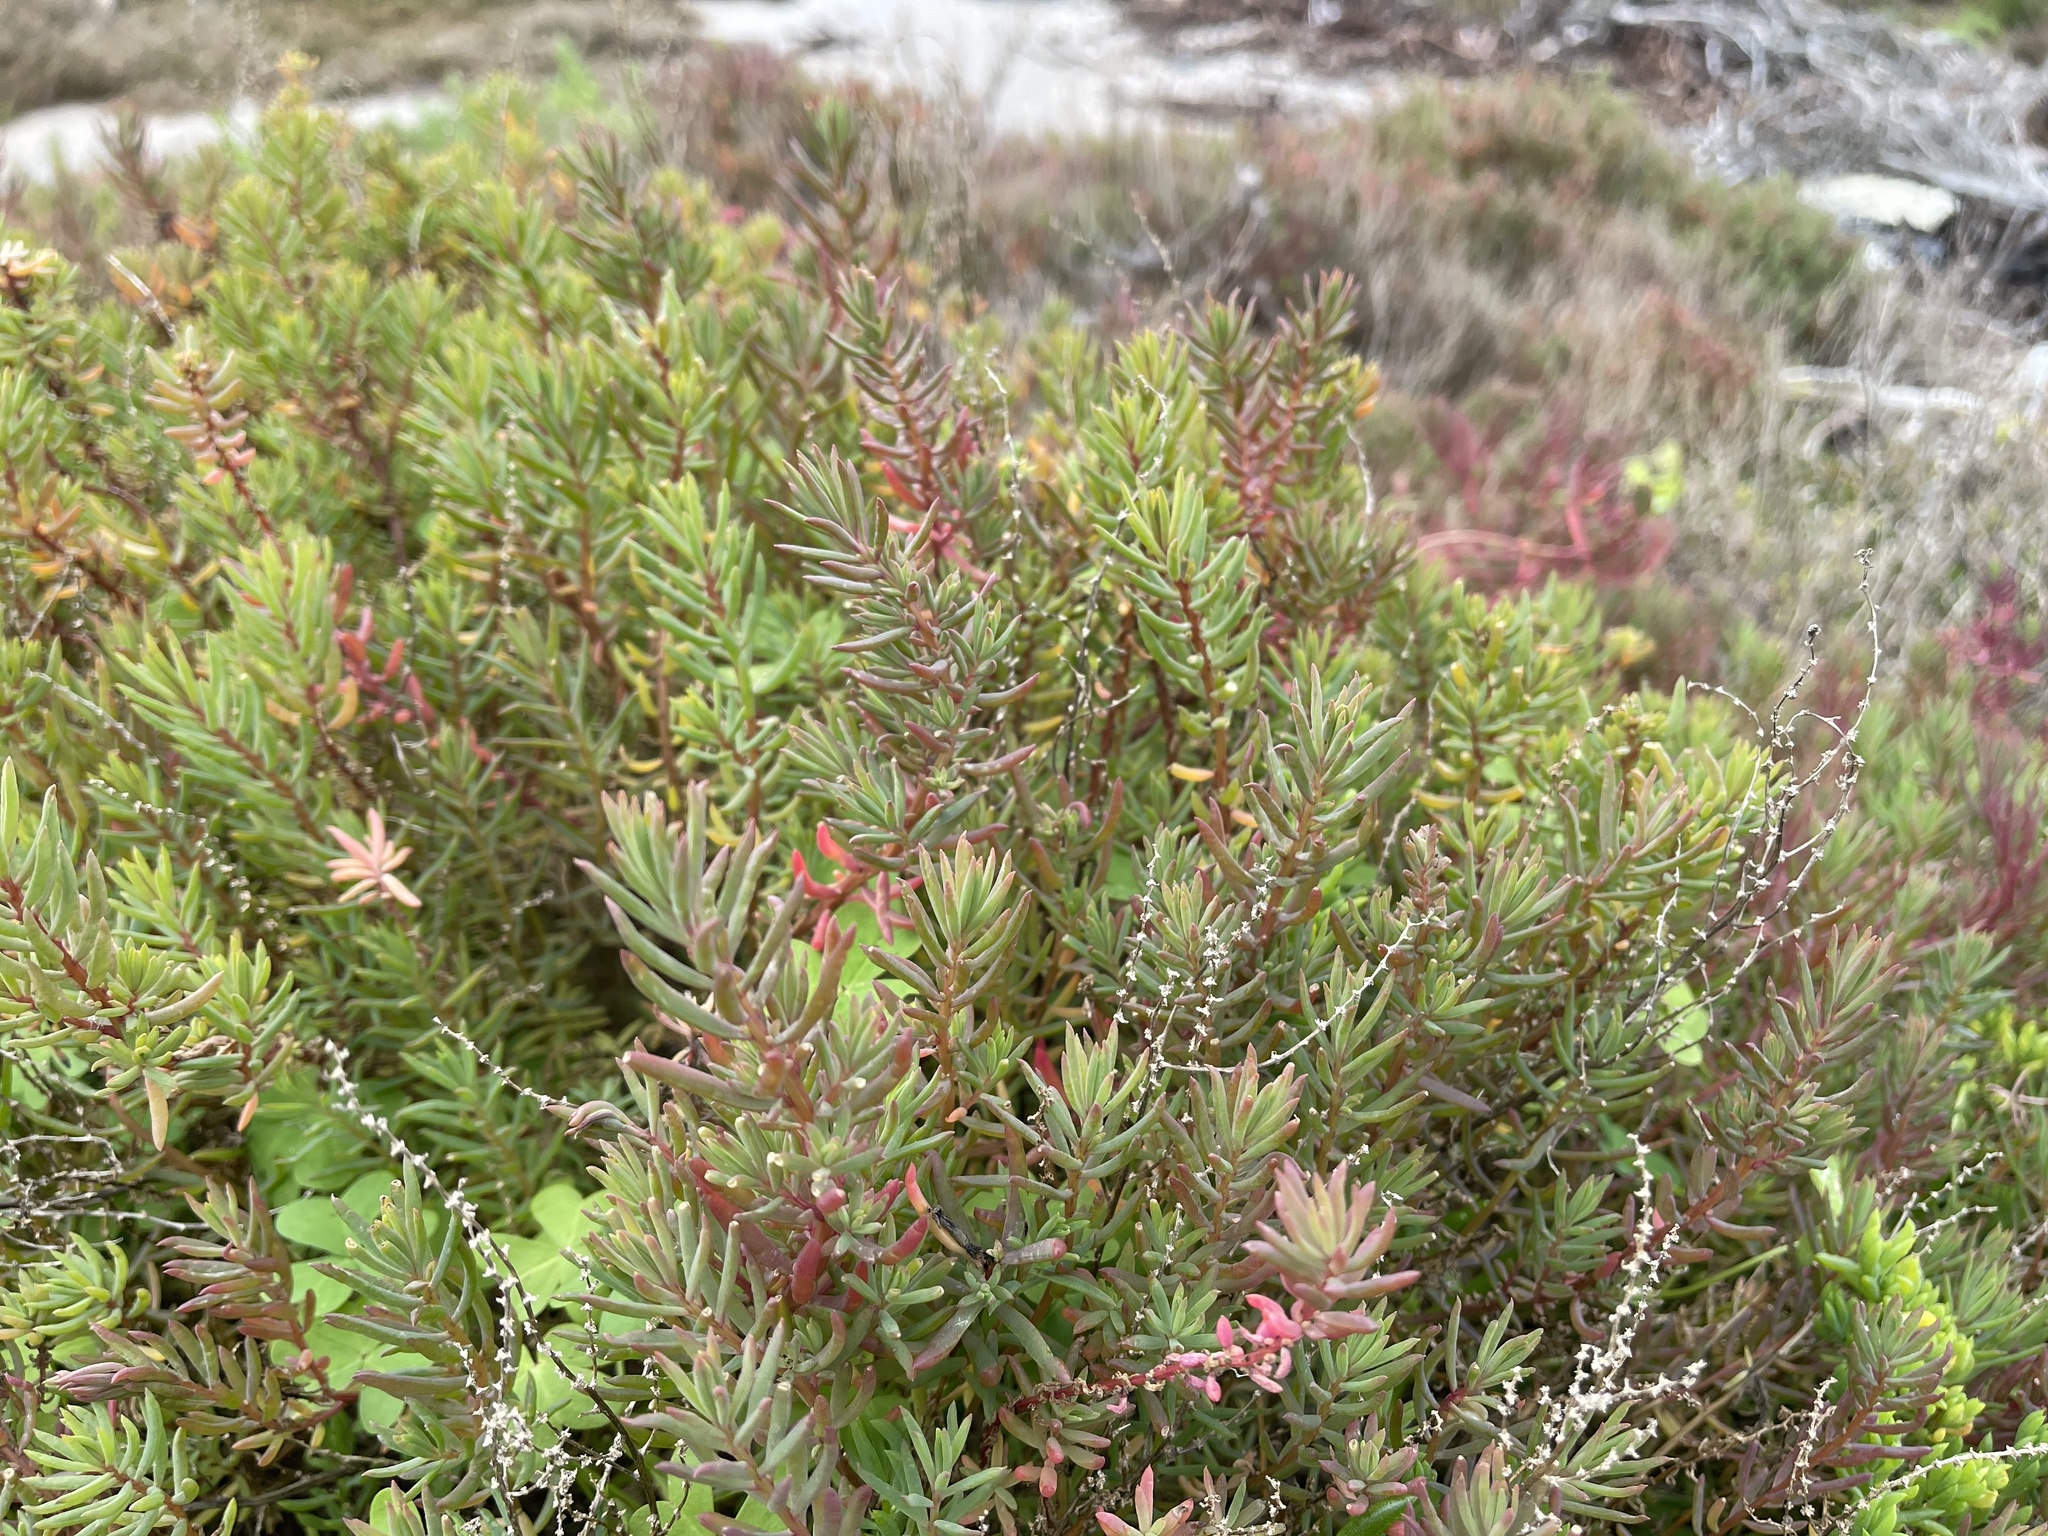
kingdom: Plantae
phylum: Tracheophyta
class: Magnoliopsida
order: Caryophyllales
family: Amaranthaceae
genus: Suaeda
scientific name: Suaeda australis
